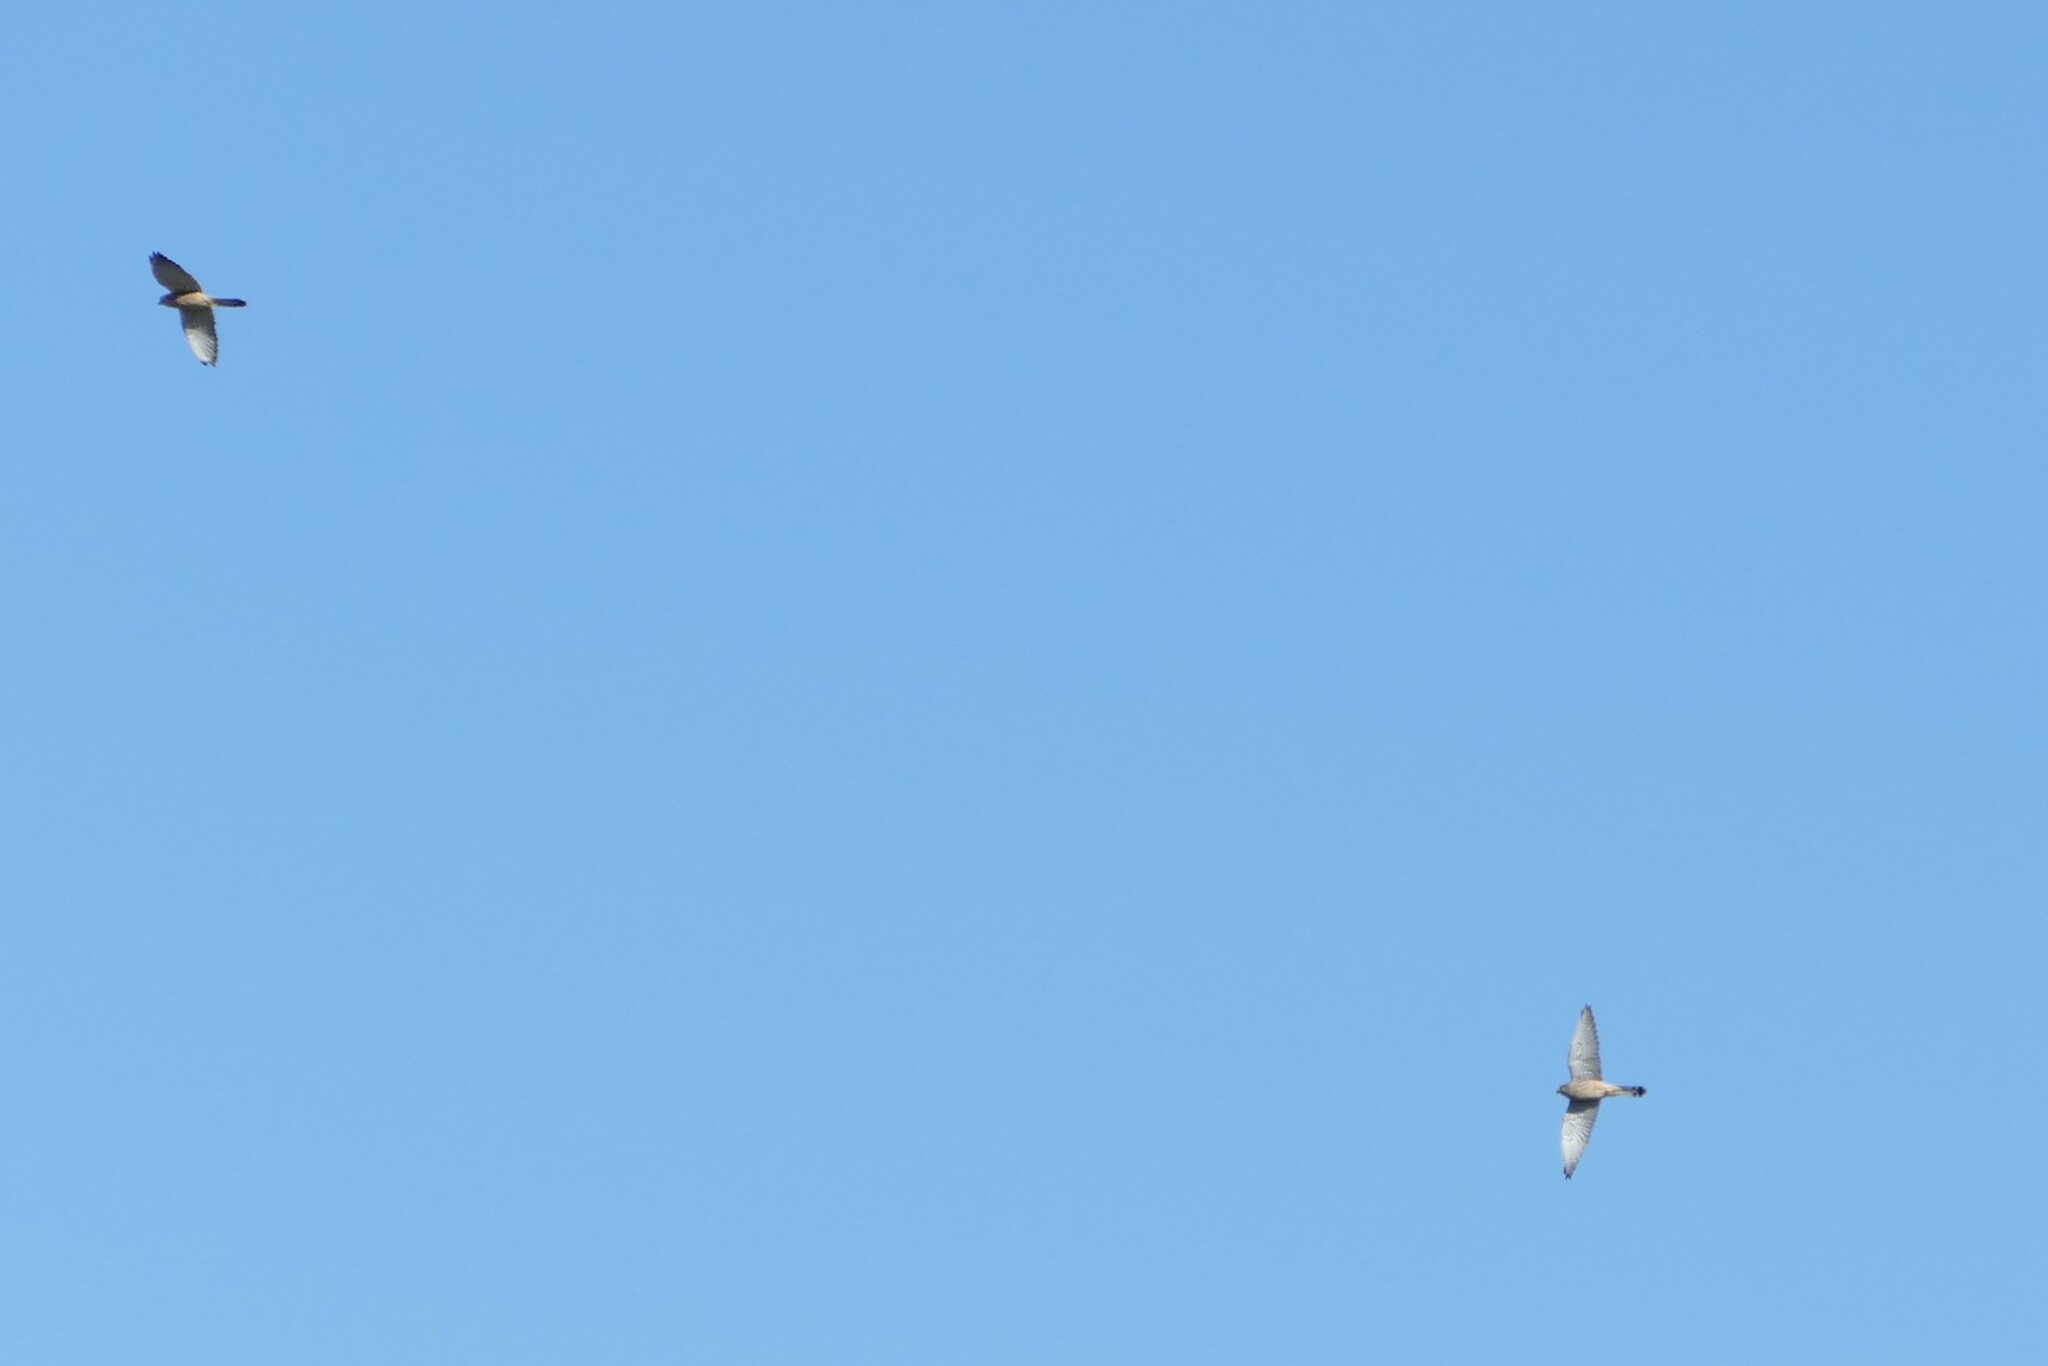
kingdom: Animalia
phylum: Chordata
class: Aves
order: Falconiformes
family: Falconidae
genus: Falco
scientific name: Falco tinnunculus
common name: Common kestrel
